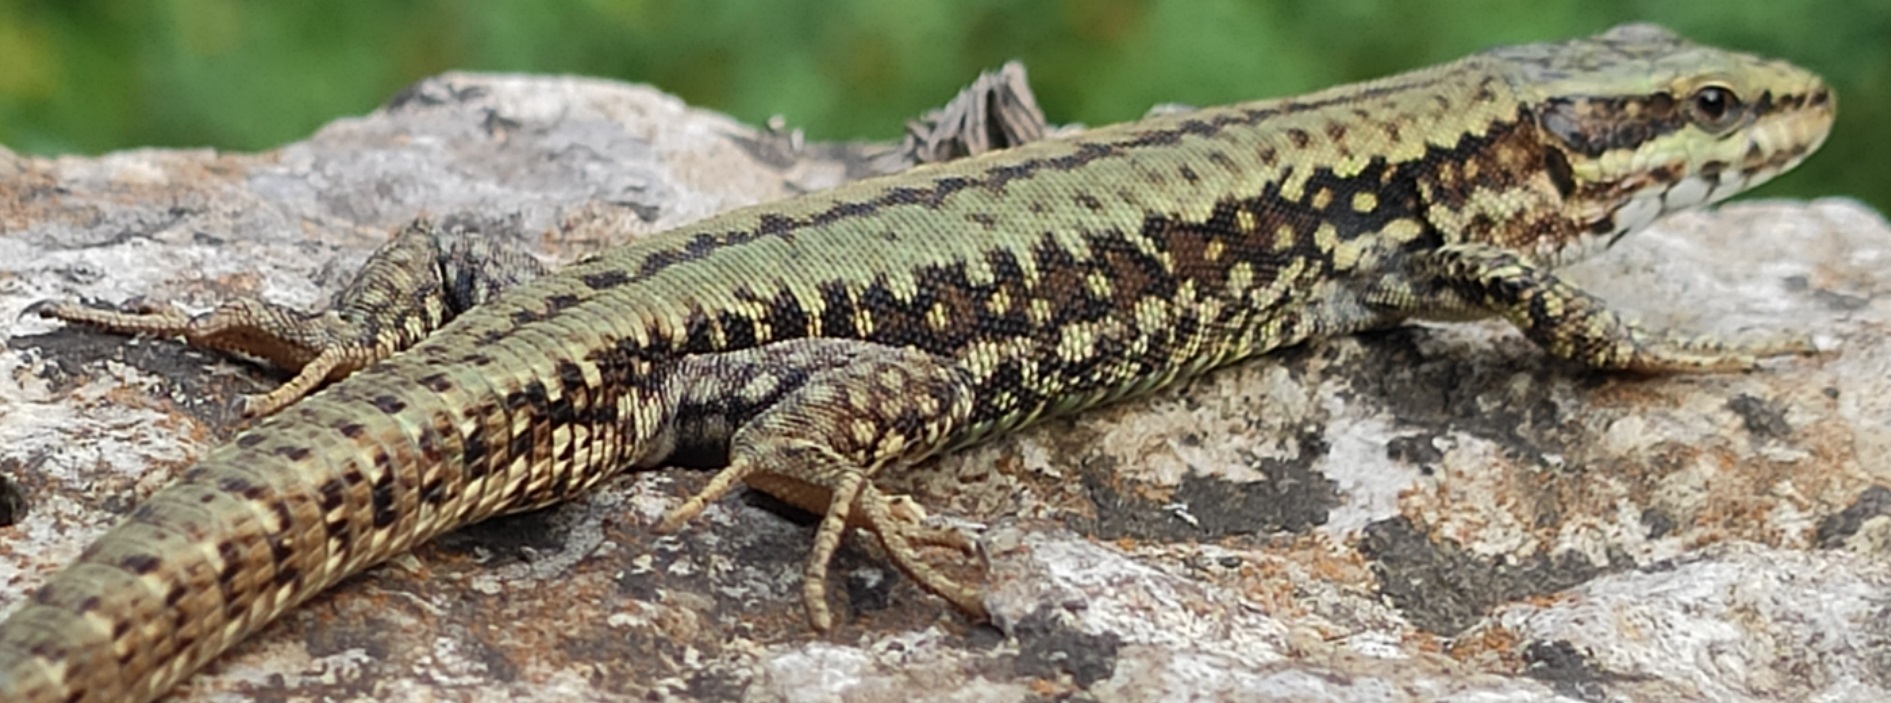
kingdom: Animalia
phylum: Chordata
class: Squamata
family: Lacertidae
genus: Podarcis
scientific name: Podarcis muralis
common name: Common wall lizard
